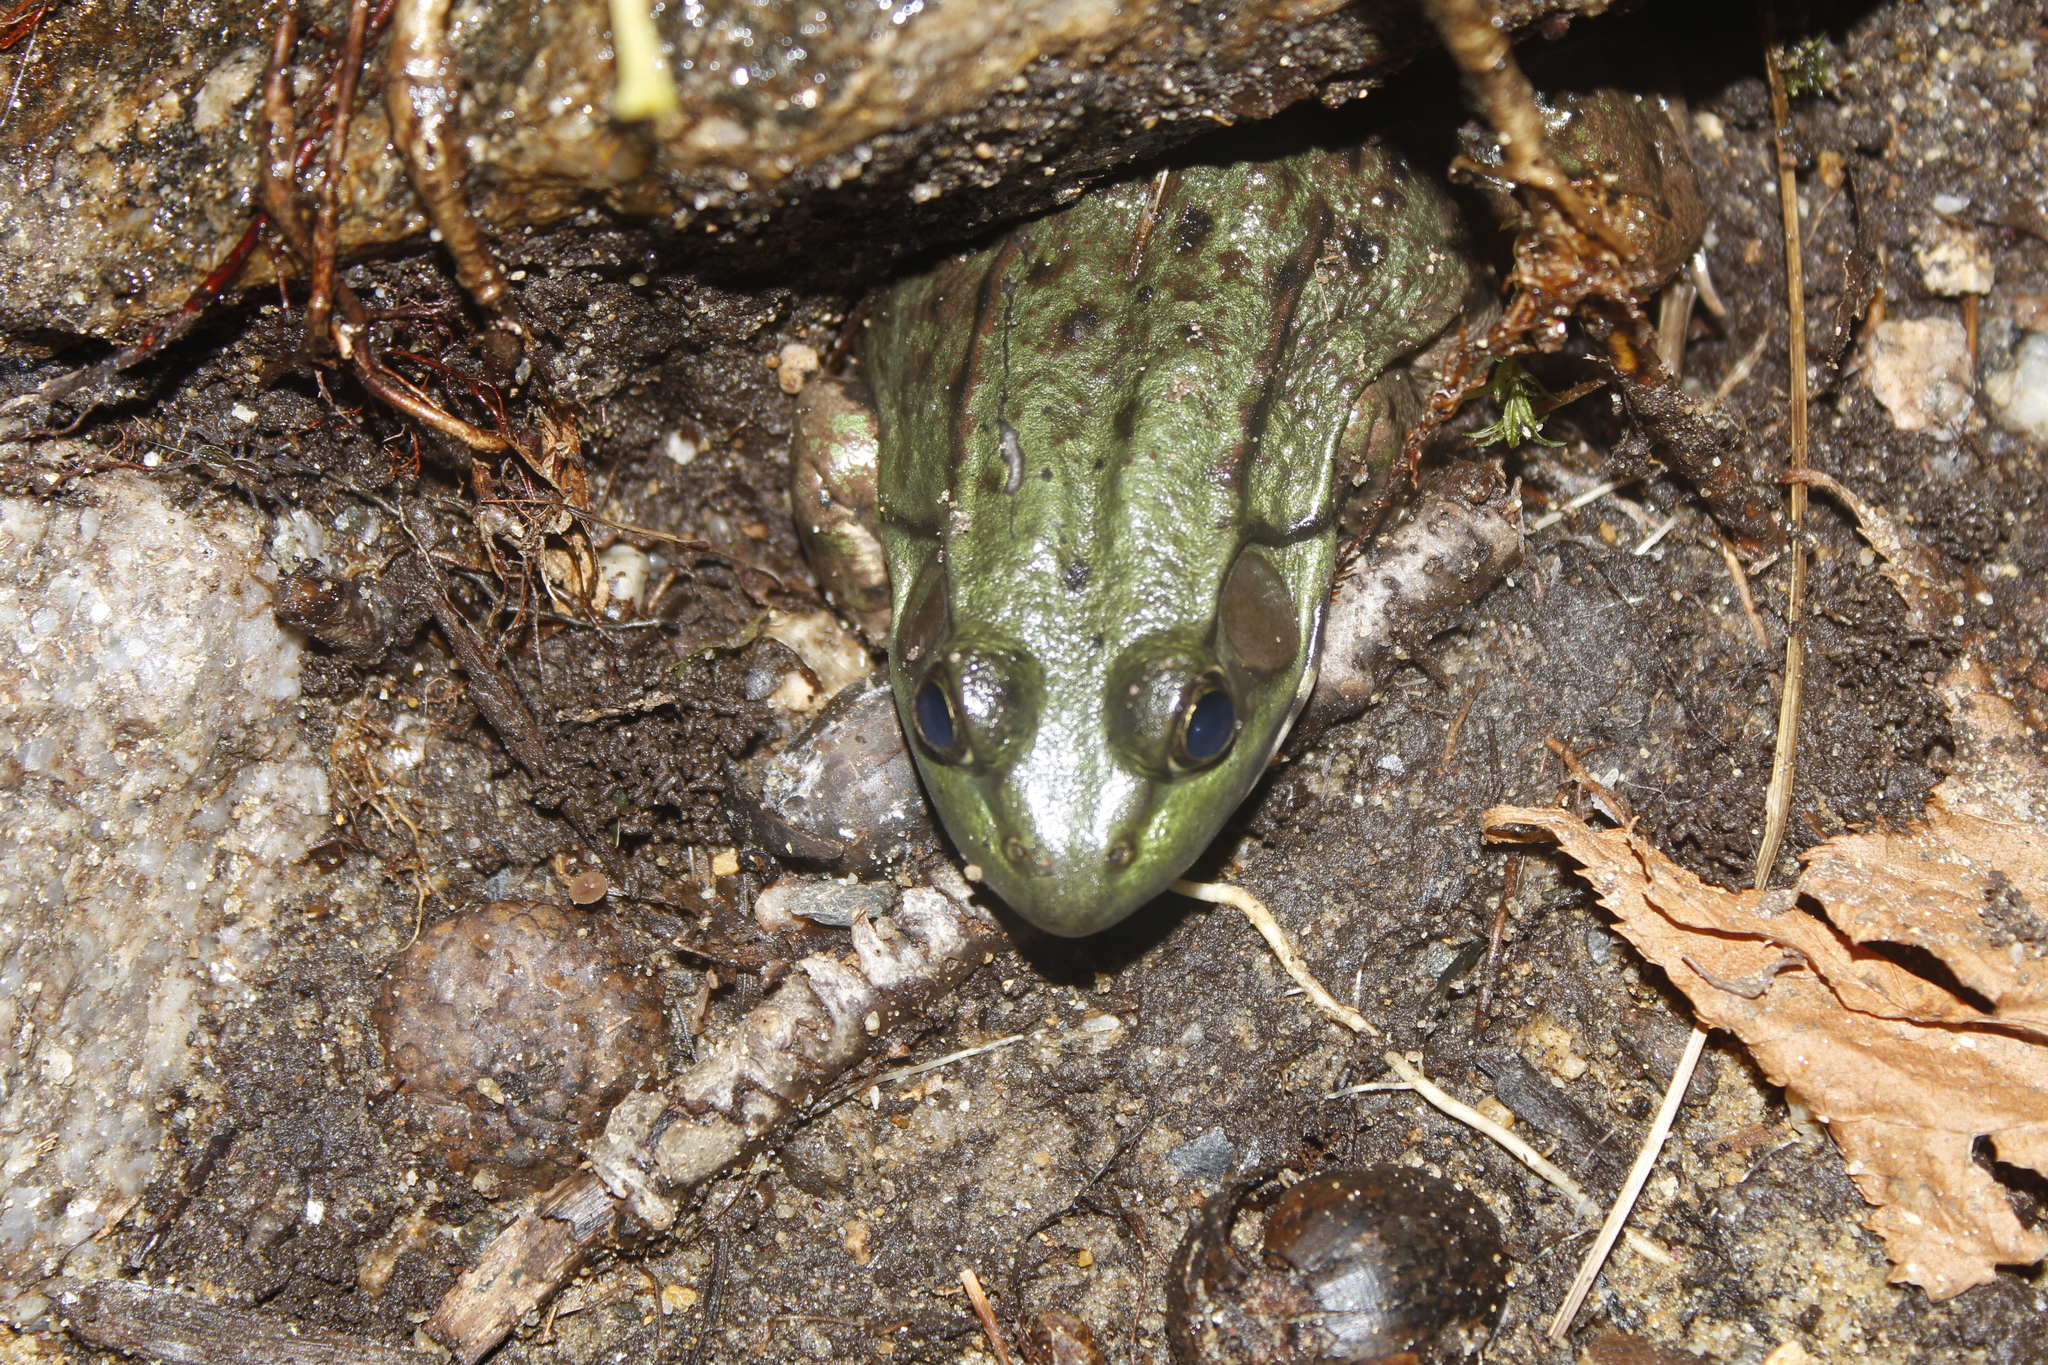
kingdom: Animalia
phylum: Chordata
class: Amphibia
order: Anura
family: Ranidae
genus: Lithobates
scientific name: Lithobates clamitans
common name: Green frog
